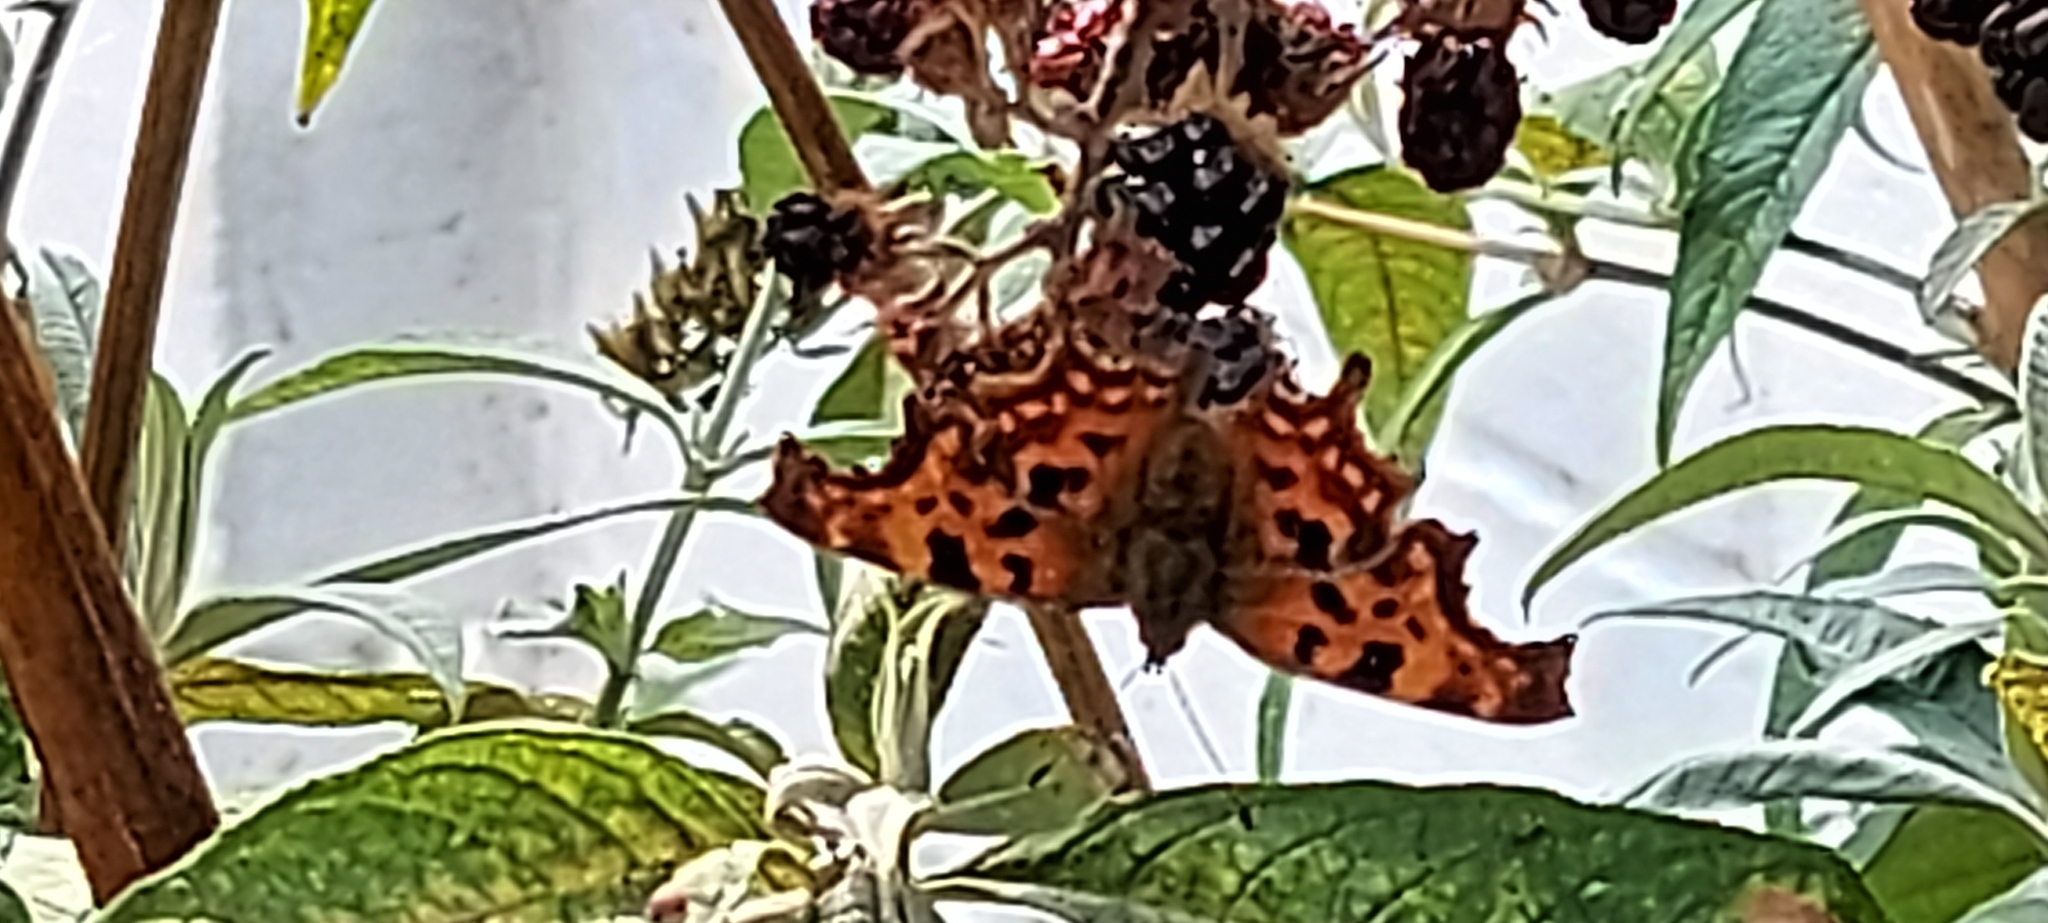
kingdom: Animalia
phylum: Arthropoda
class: Insecta
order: Lepidoptera
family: Nymphalidae
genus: Polygonia
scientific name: Polygonia c-album
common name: Comma
